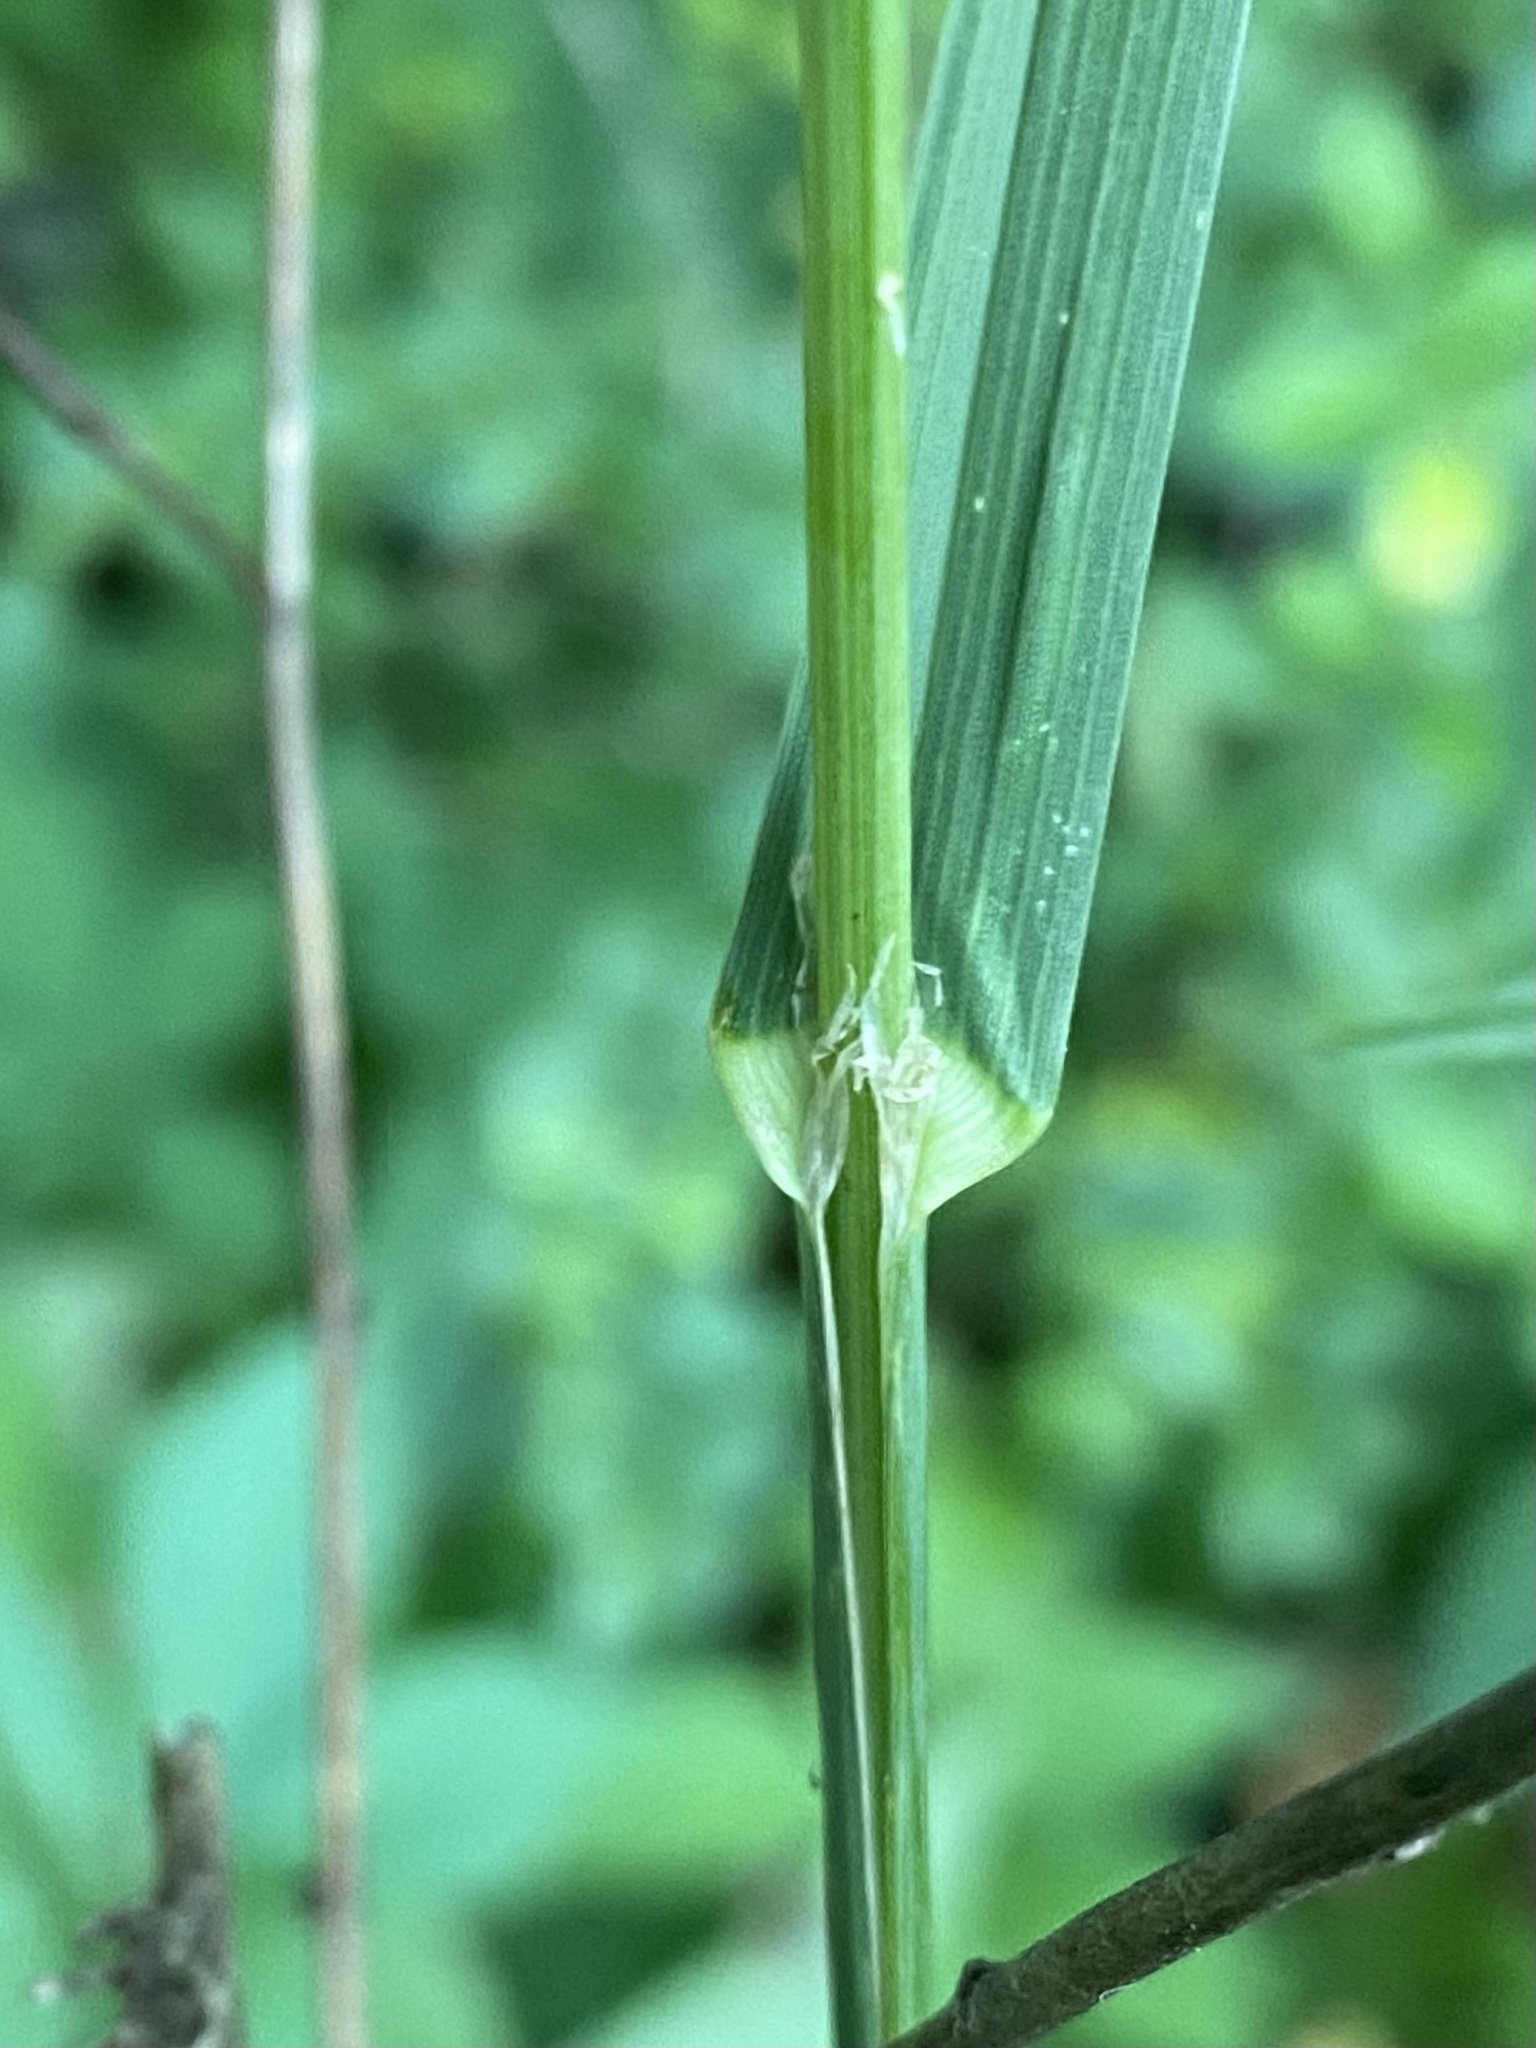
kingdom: Plantae
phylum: Tracheophyta
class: Liliopsida
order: Poales
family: Poaceae
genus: Dactylis
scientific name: Dactylis glomerata
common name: Orchardgrass
